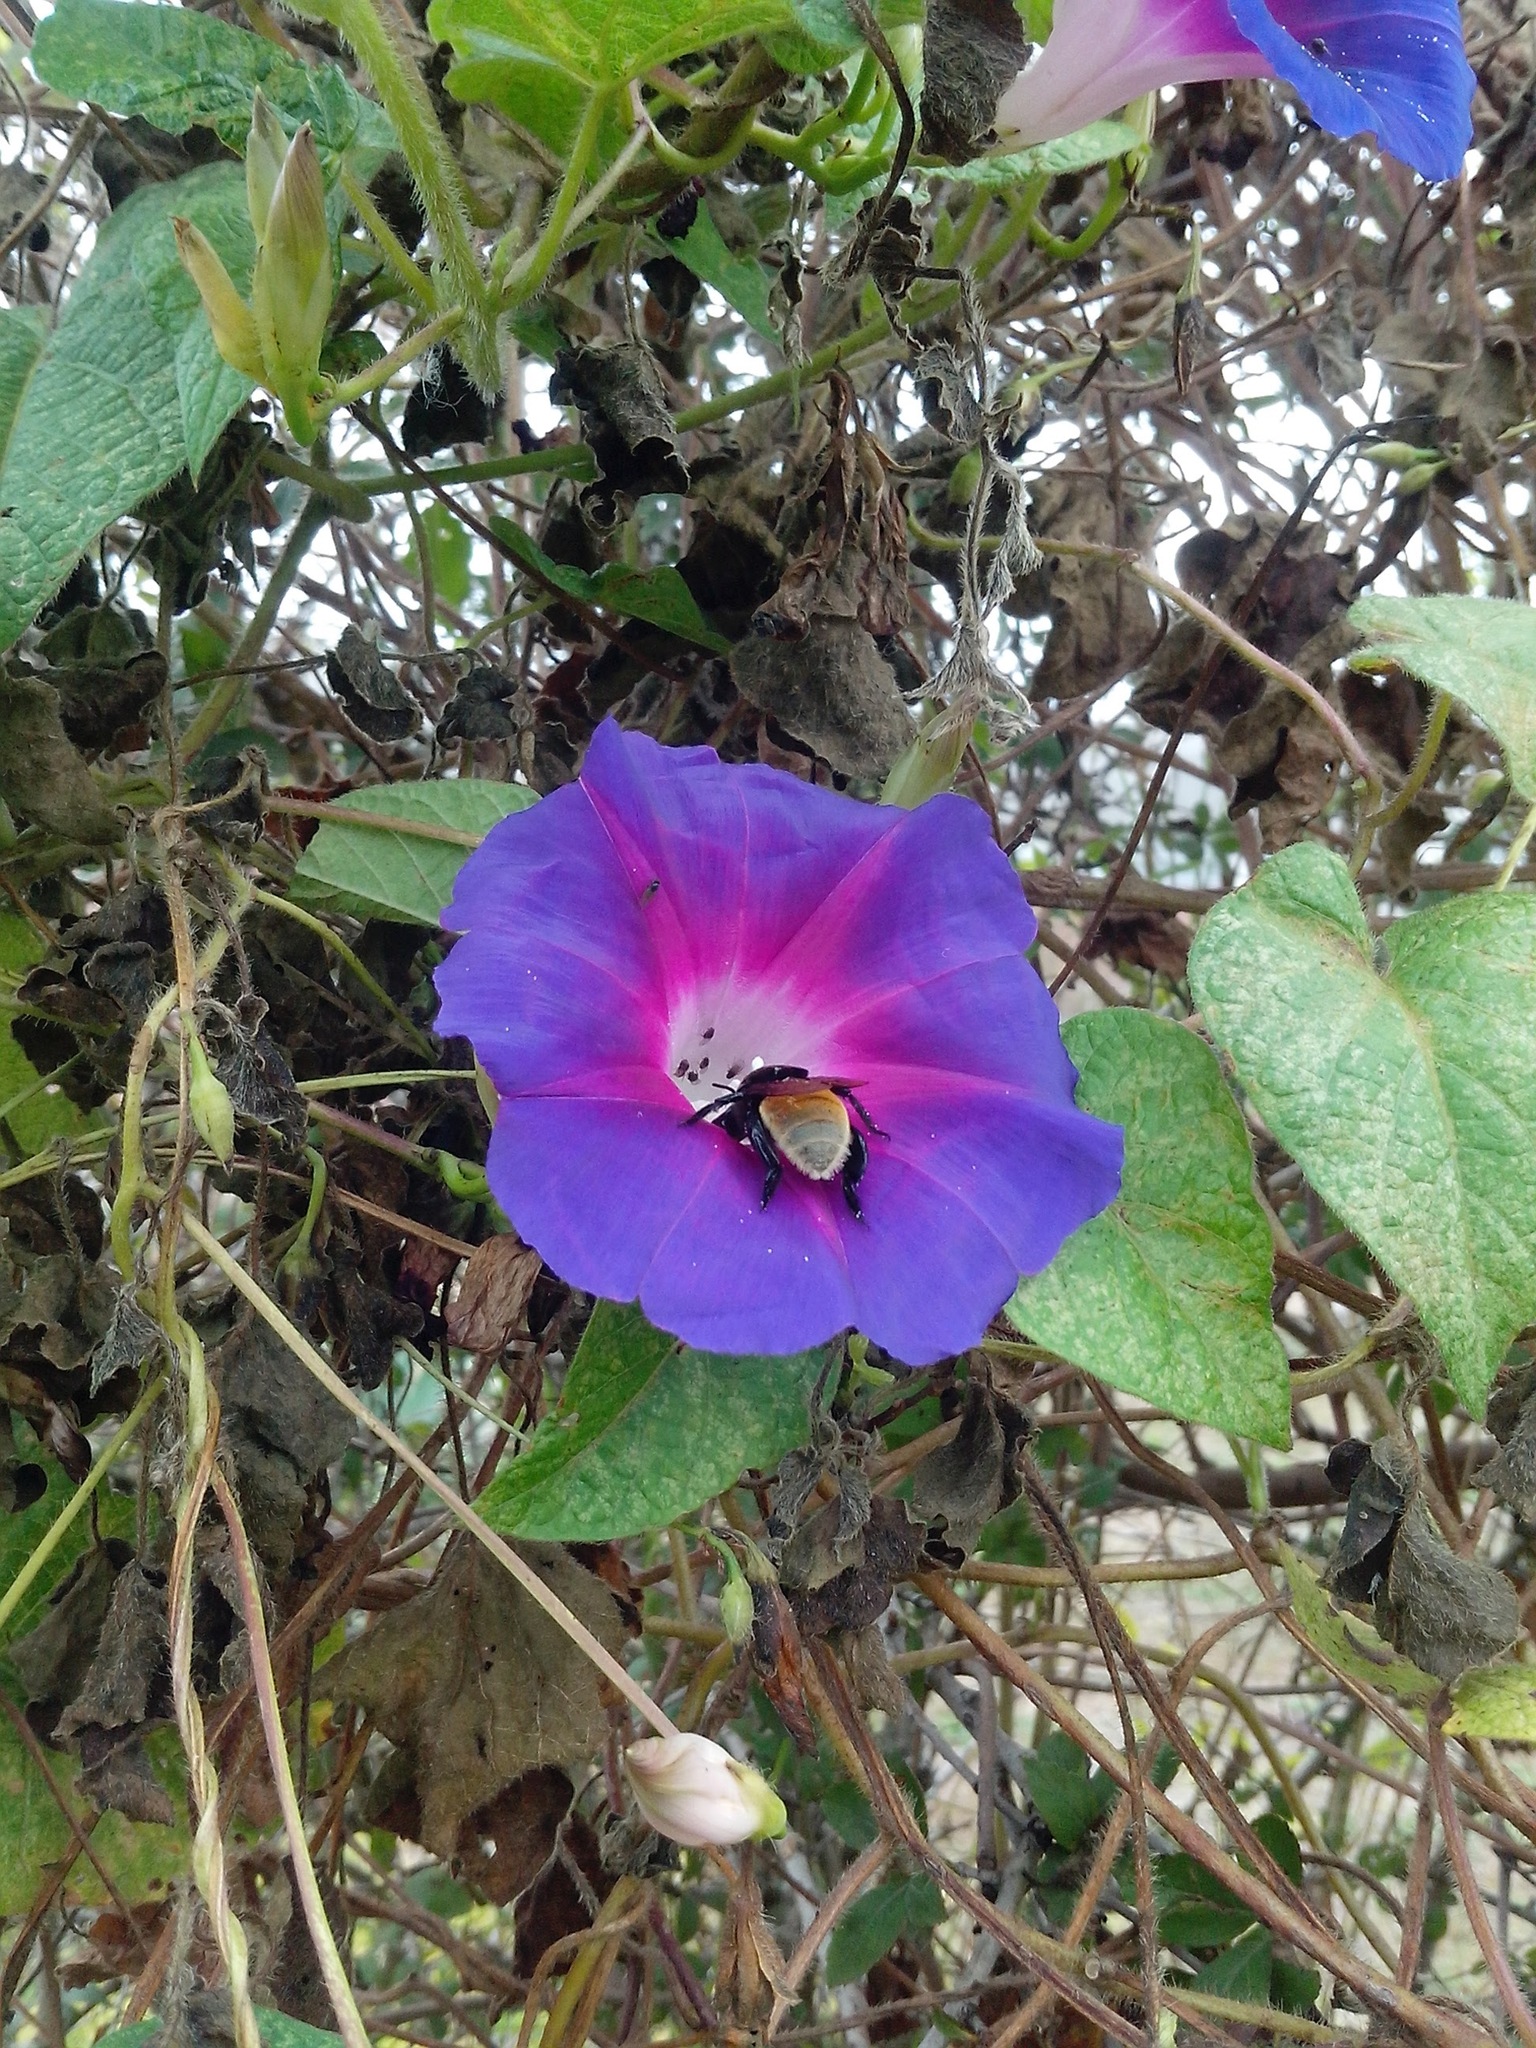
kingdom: Plantae
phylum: Tracheophyta
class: Magnoliopsida
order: Solanales
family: Convolvulaceae
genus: Ipomoea
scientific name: Ipomoea orizabensis
